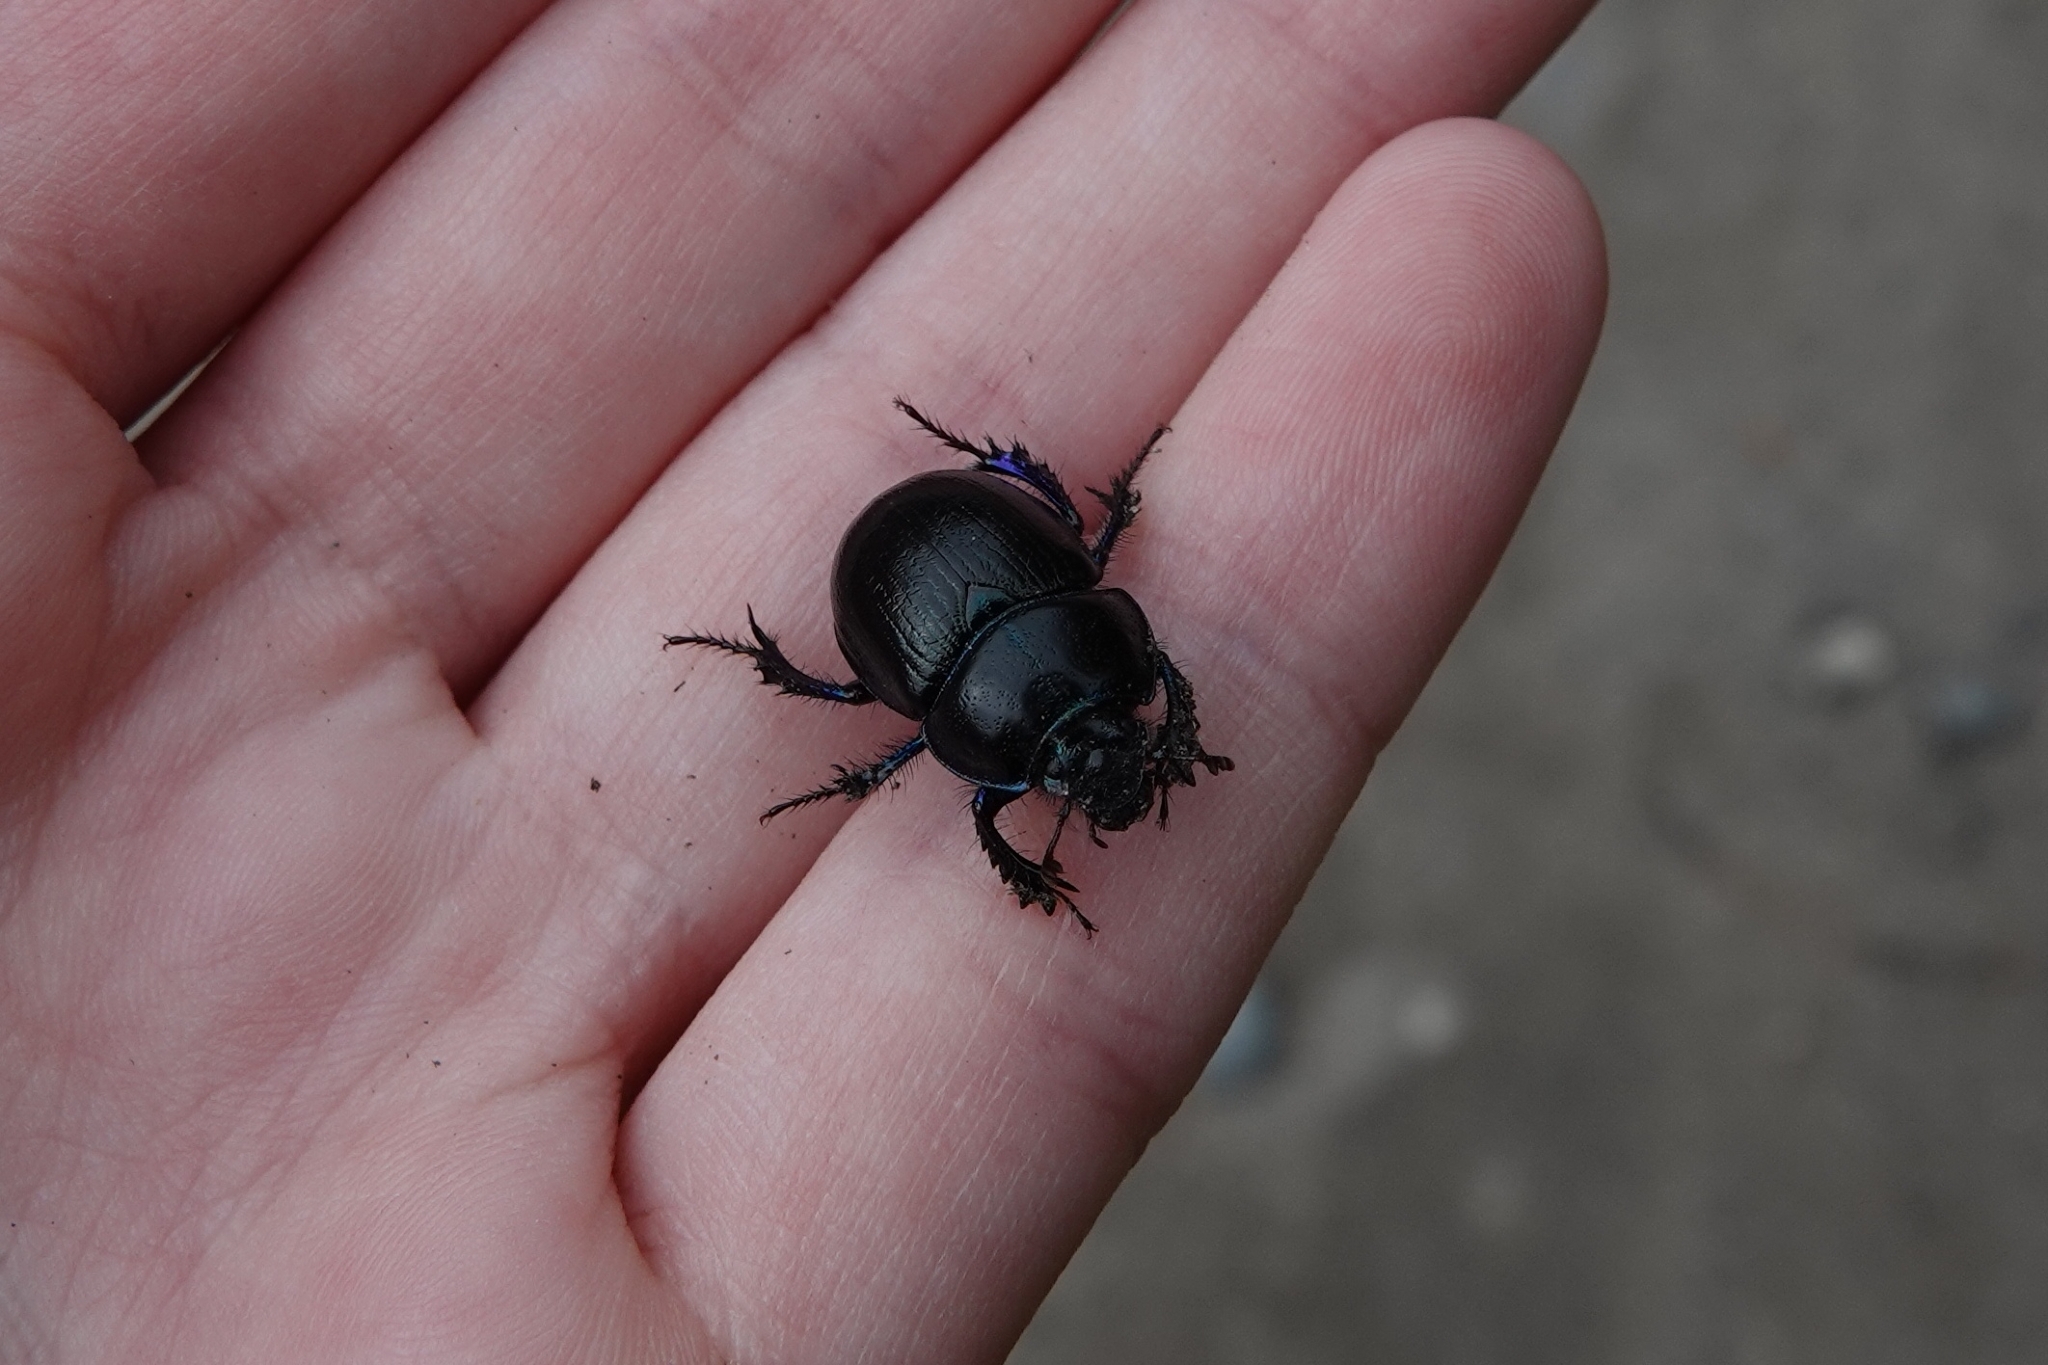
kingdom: Animalia
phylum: Arthropoda
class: Insecta
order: Coleoptera
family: Geotrupidae
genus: Anoplotrupes
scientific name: Anoplotrupes stercorosus
